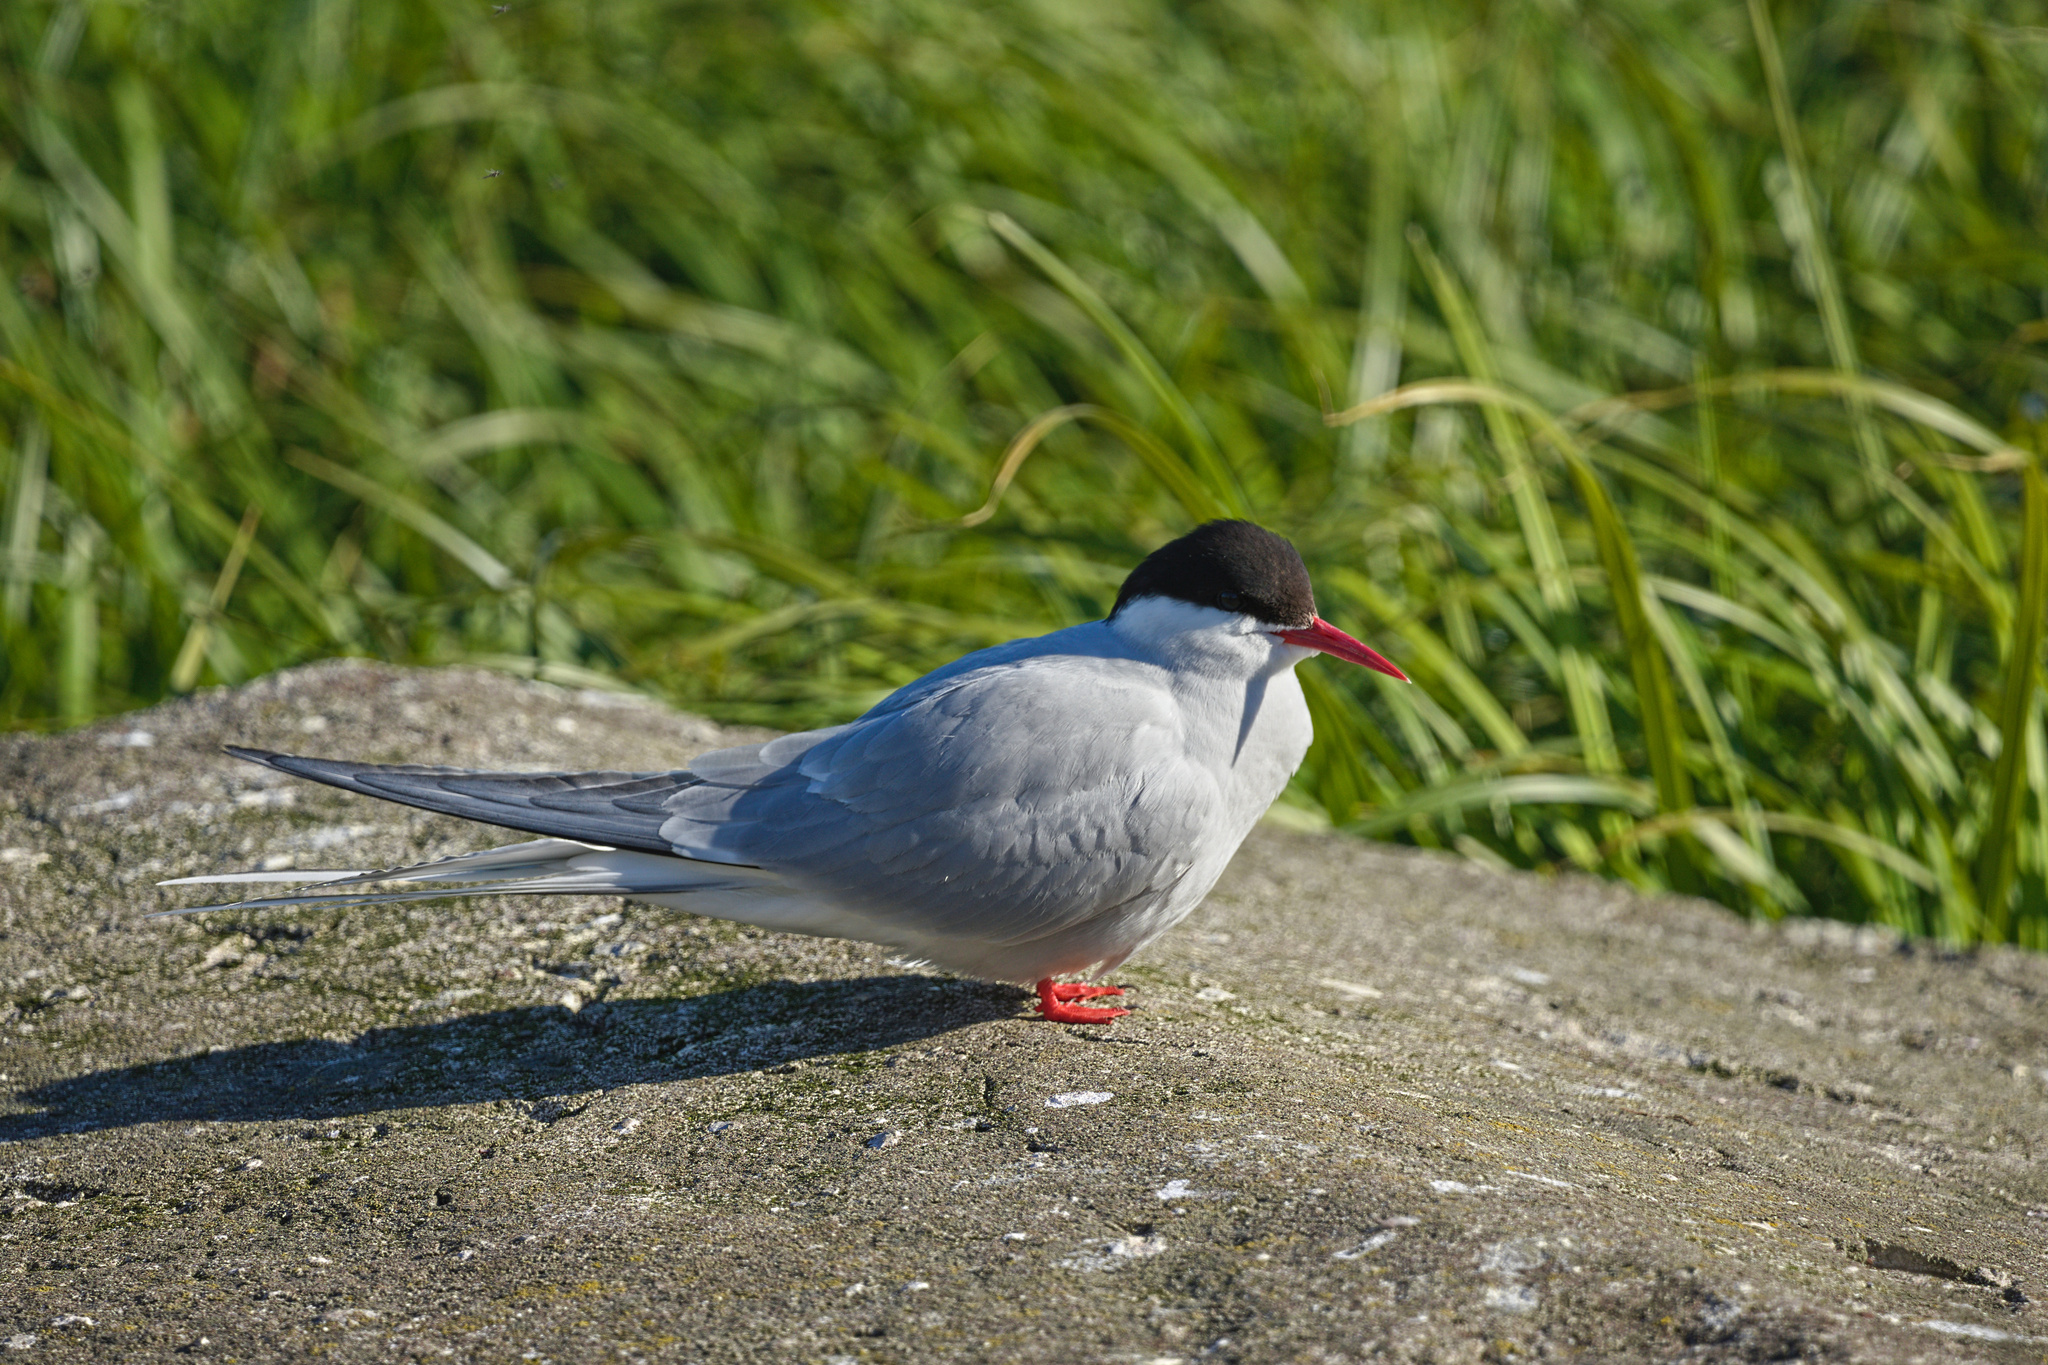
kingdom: Animalia
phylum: Chordata
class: Aves
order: Charadriiformes
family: Laridae
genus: Sterna
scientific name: Sterna paradisaea
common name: Arctic tern
